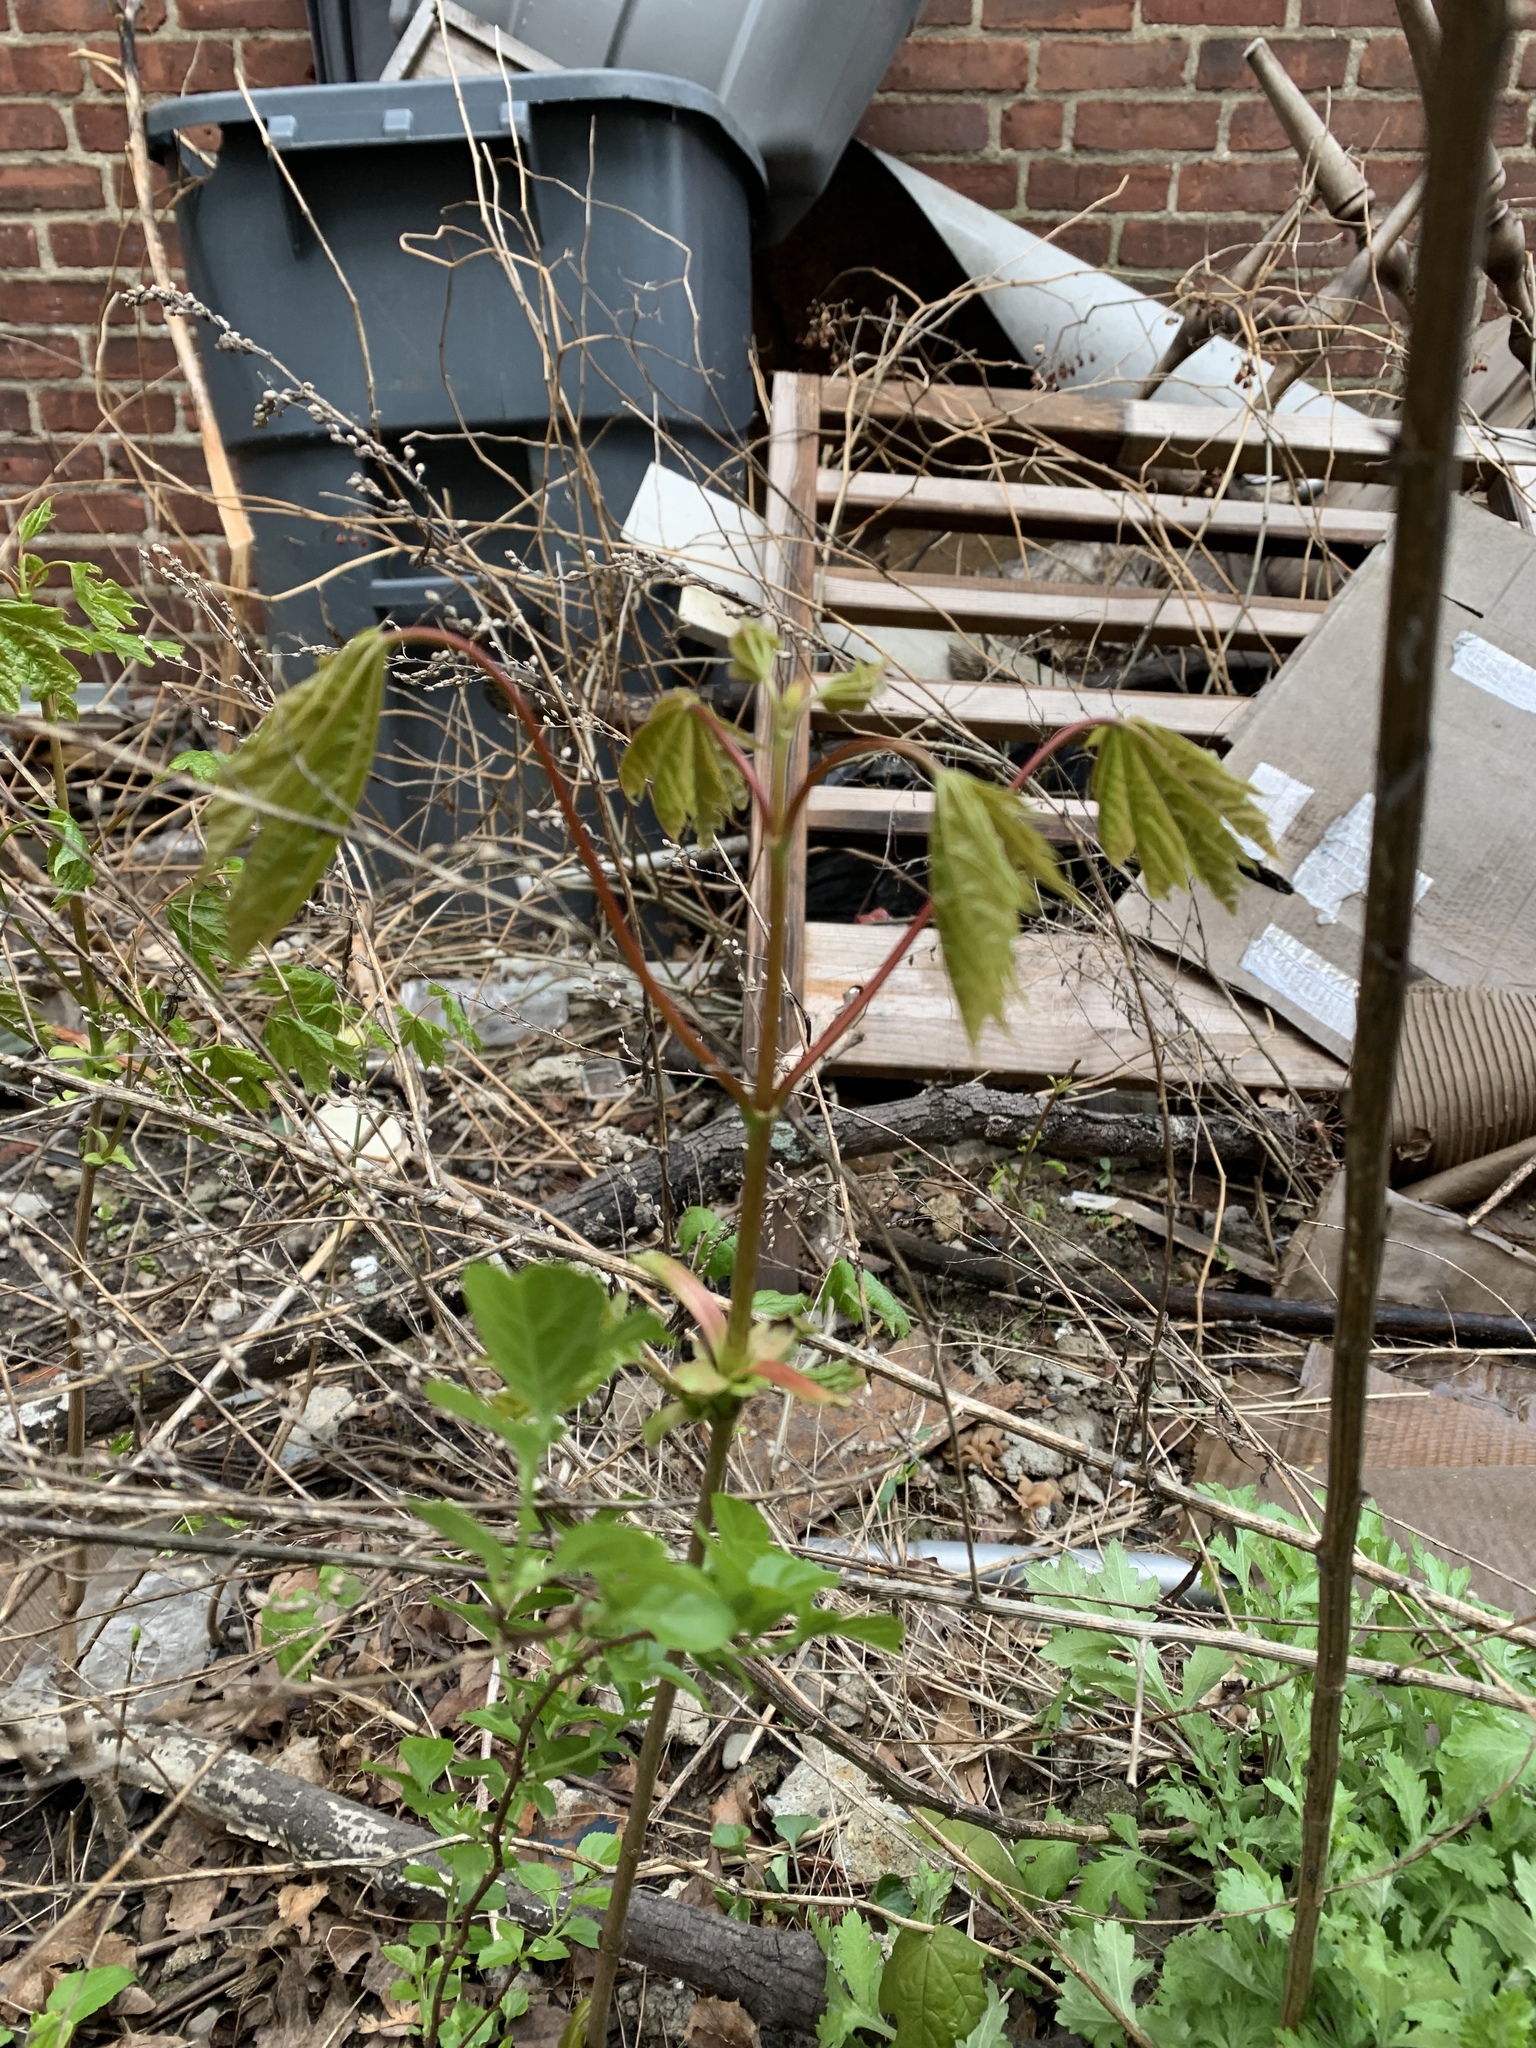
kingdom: Plantae
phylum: Tracheophyta
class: Magnoliopsida
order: Sapindales
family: Sapindaceae
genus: Acer
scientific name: Acer platanoides
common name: Norway maple
